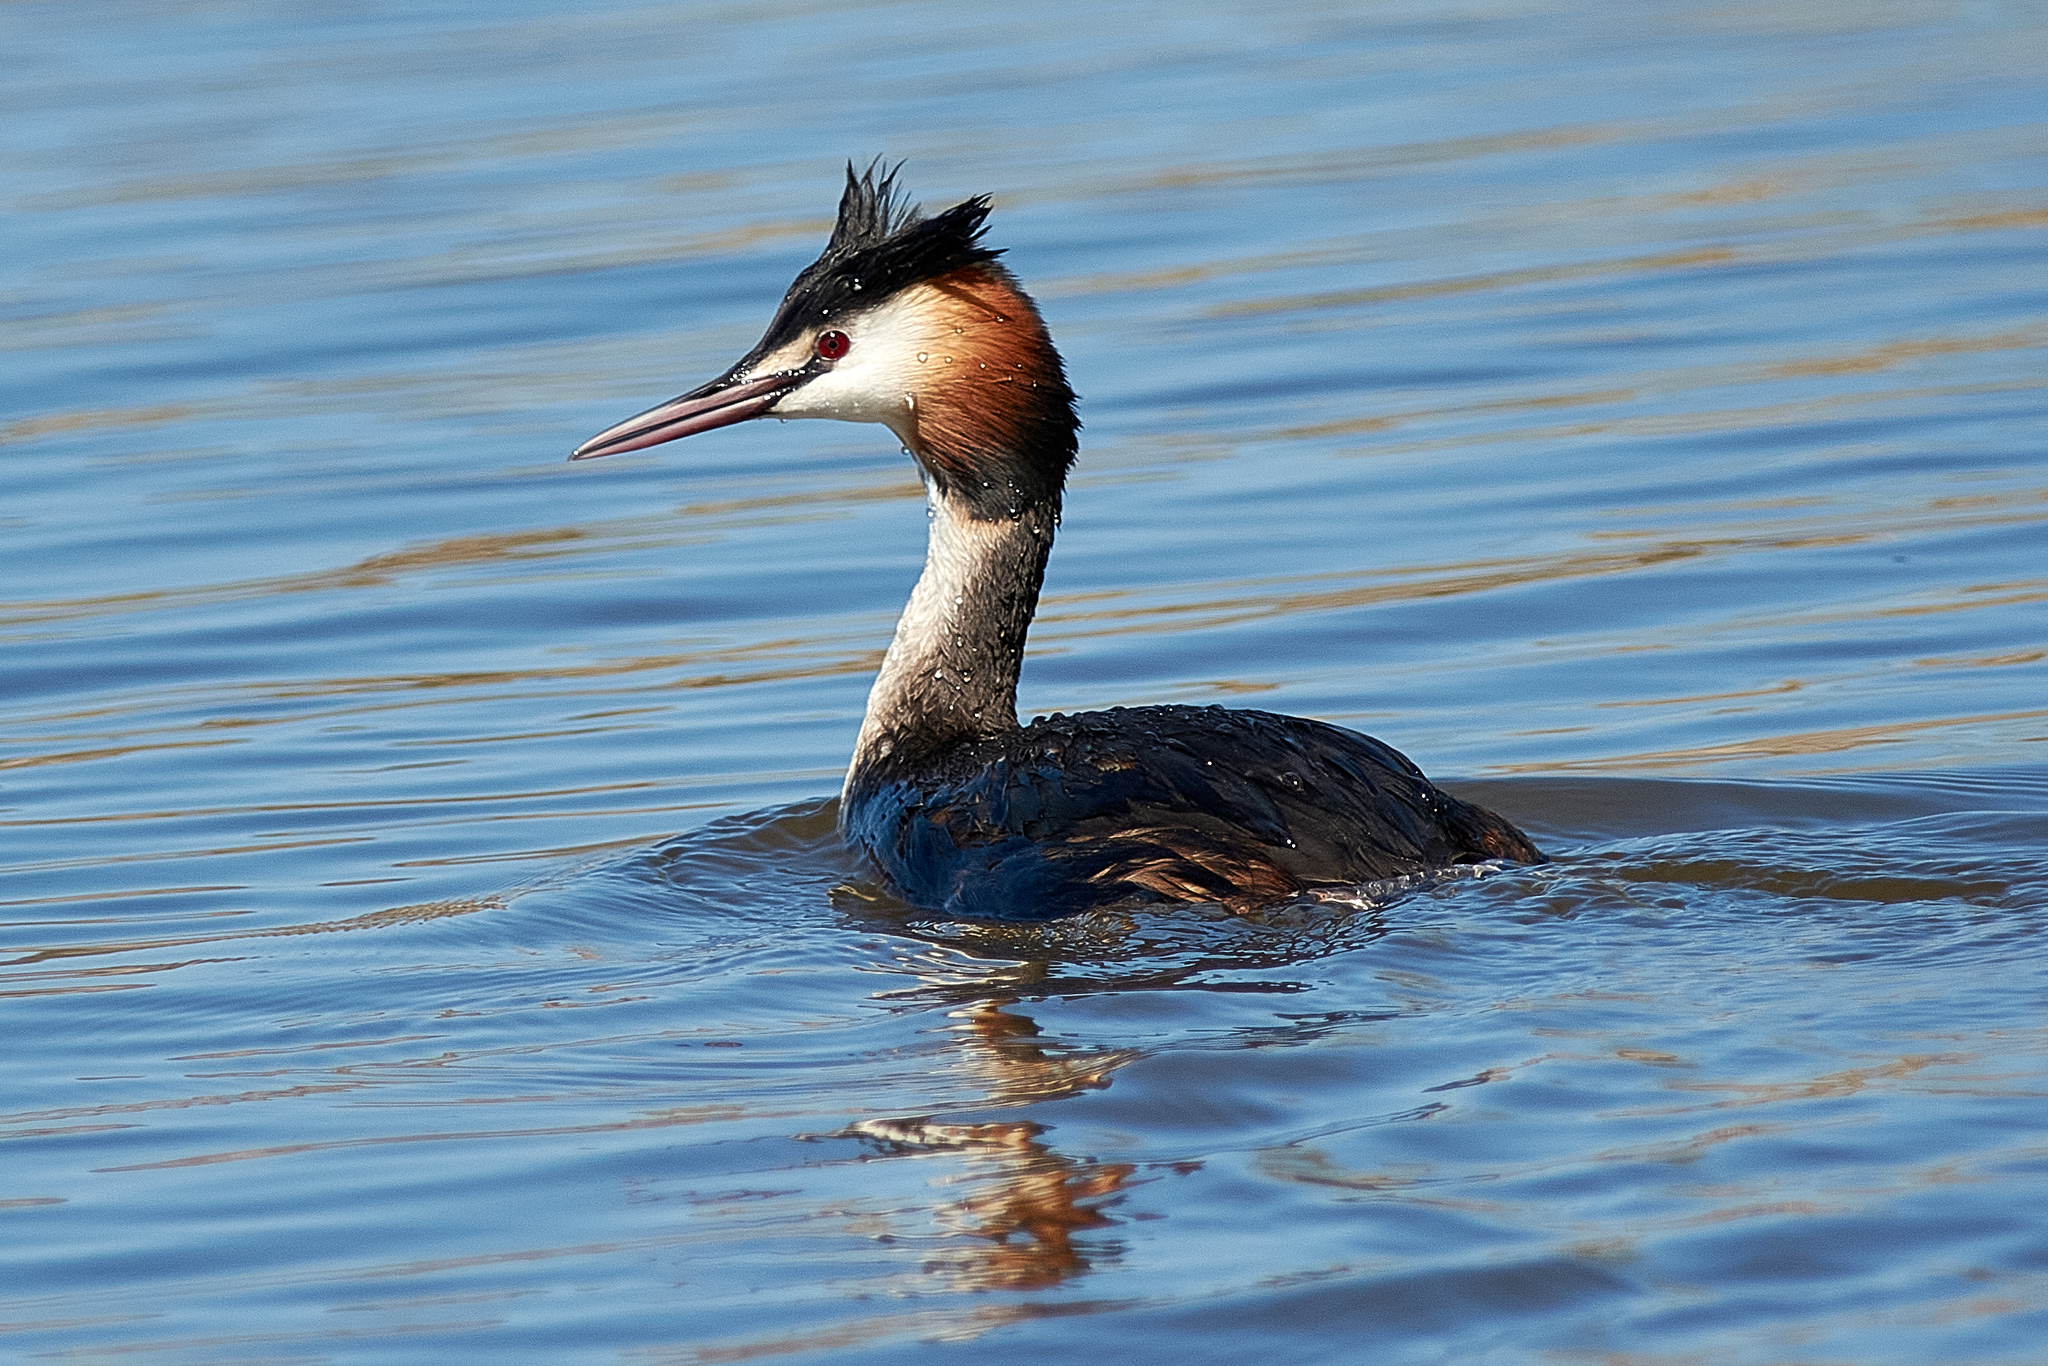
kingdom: Animalia
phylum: Chordata
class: Aves
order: Podicipediformes
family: Podicipedidae
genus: Podiceps
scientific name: Podiceps cristatus
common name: Great crested grebe
